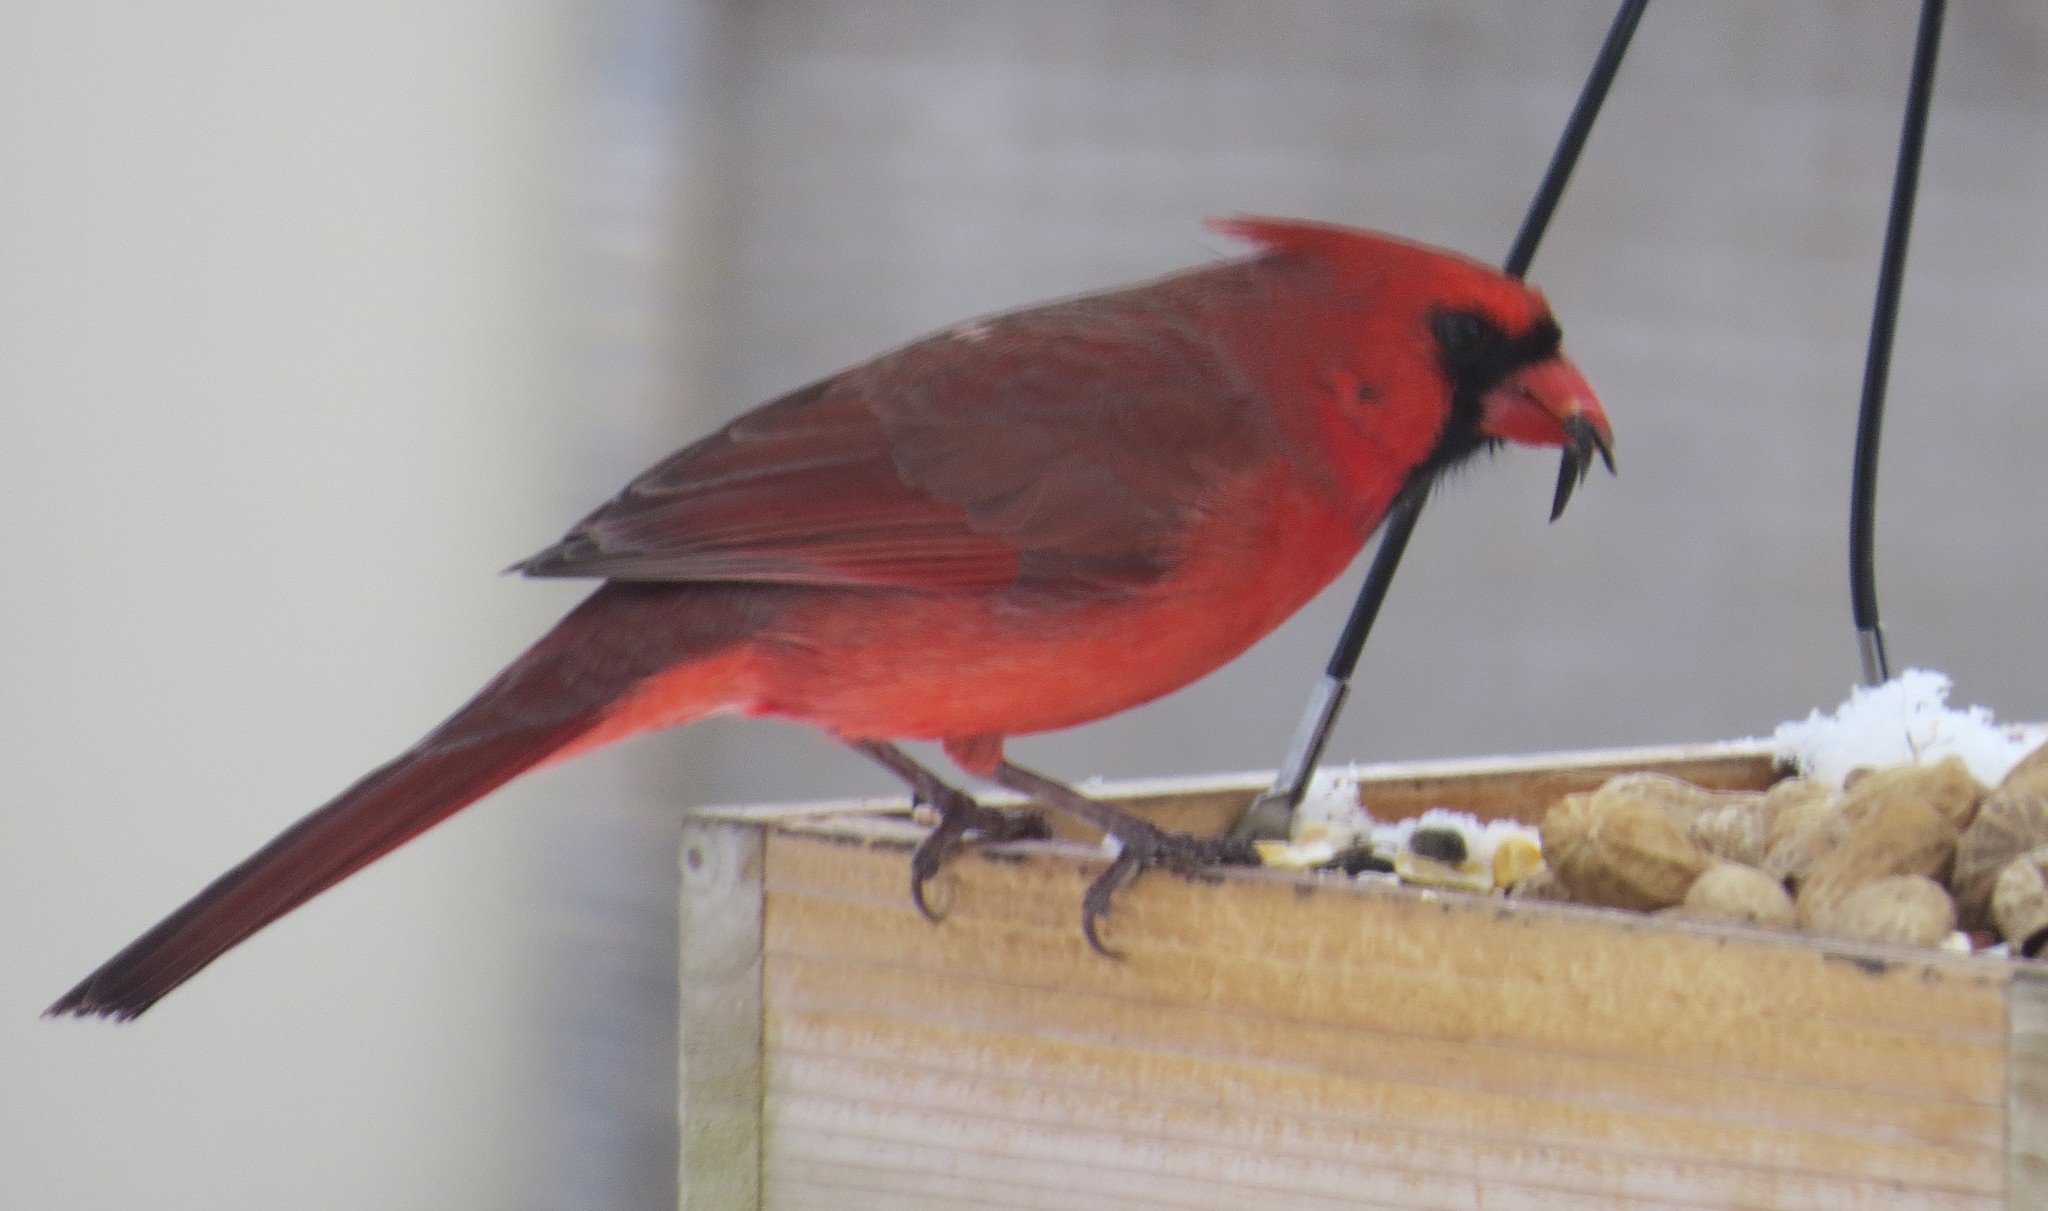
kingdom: Animalia
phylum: Chordata
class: Aves
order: Passeriformes
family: Cardinalidae
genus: Cardinalis
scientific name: Cardinalis cardinalis
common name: Northern cardinal
